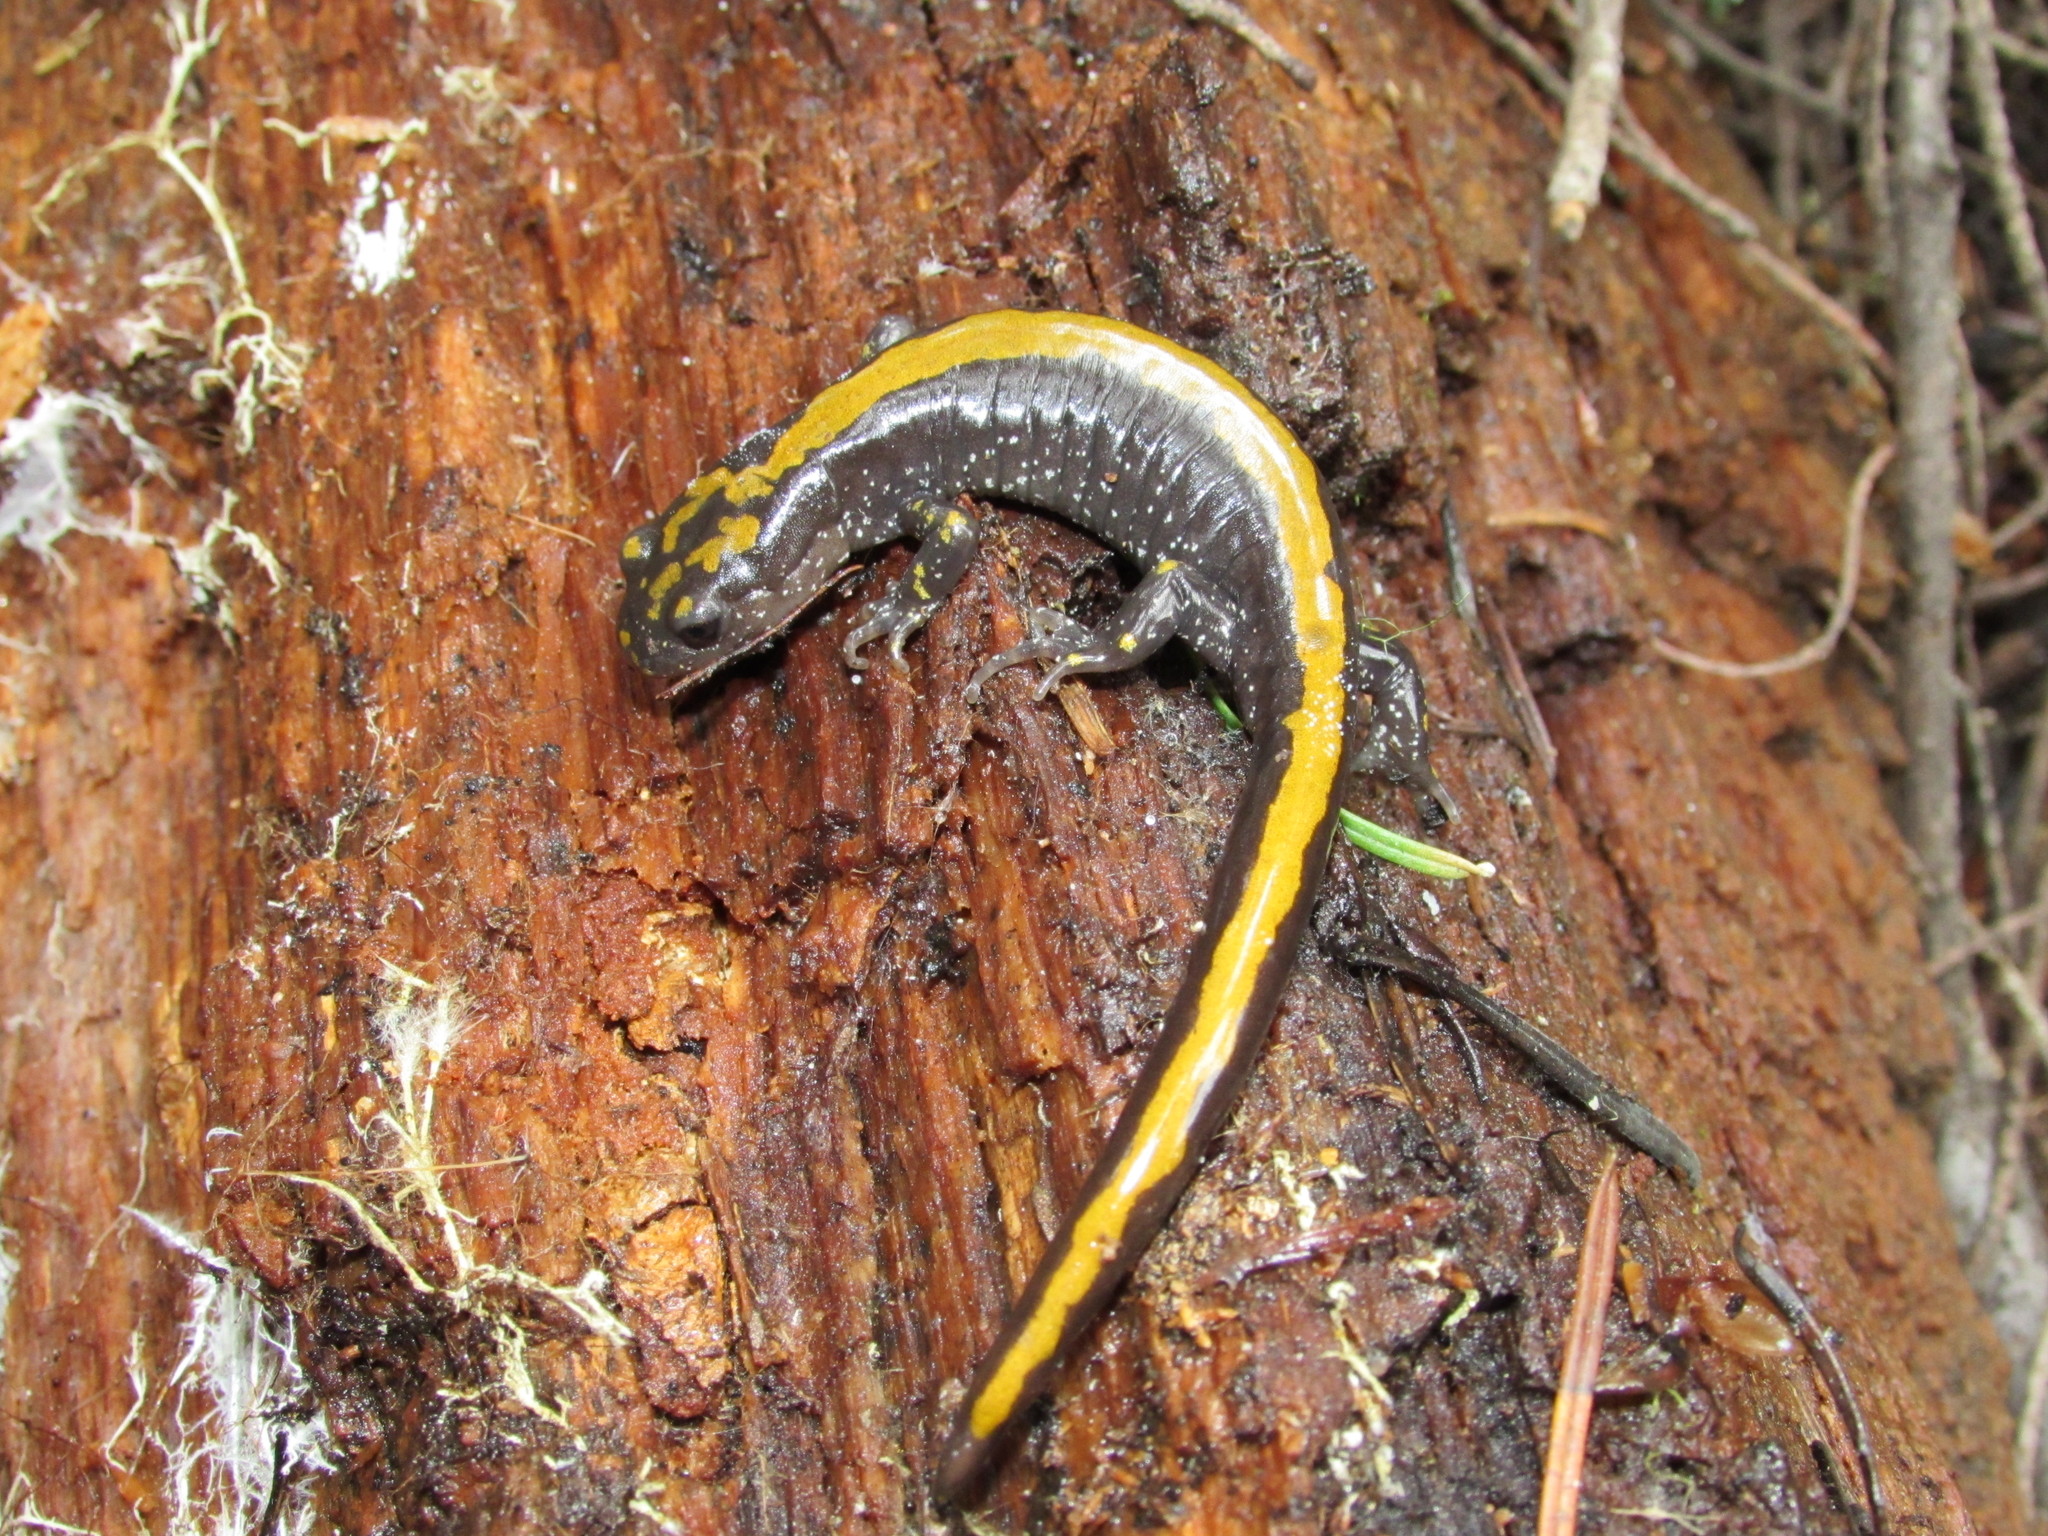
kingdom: Animalia
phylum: Chordata
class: Amphibia
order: Caudata
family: Ambystomatidae
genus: Ambystoma
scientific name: Ambystoma macrodactylum
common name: Long-toed salamander
